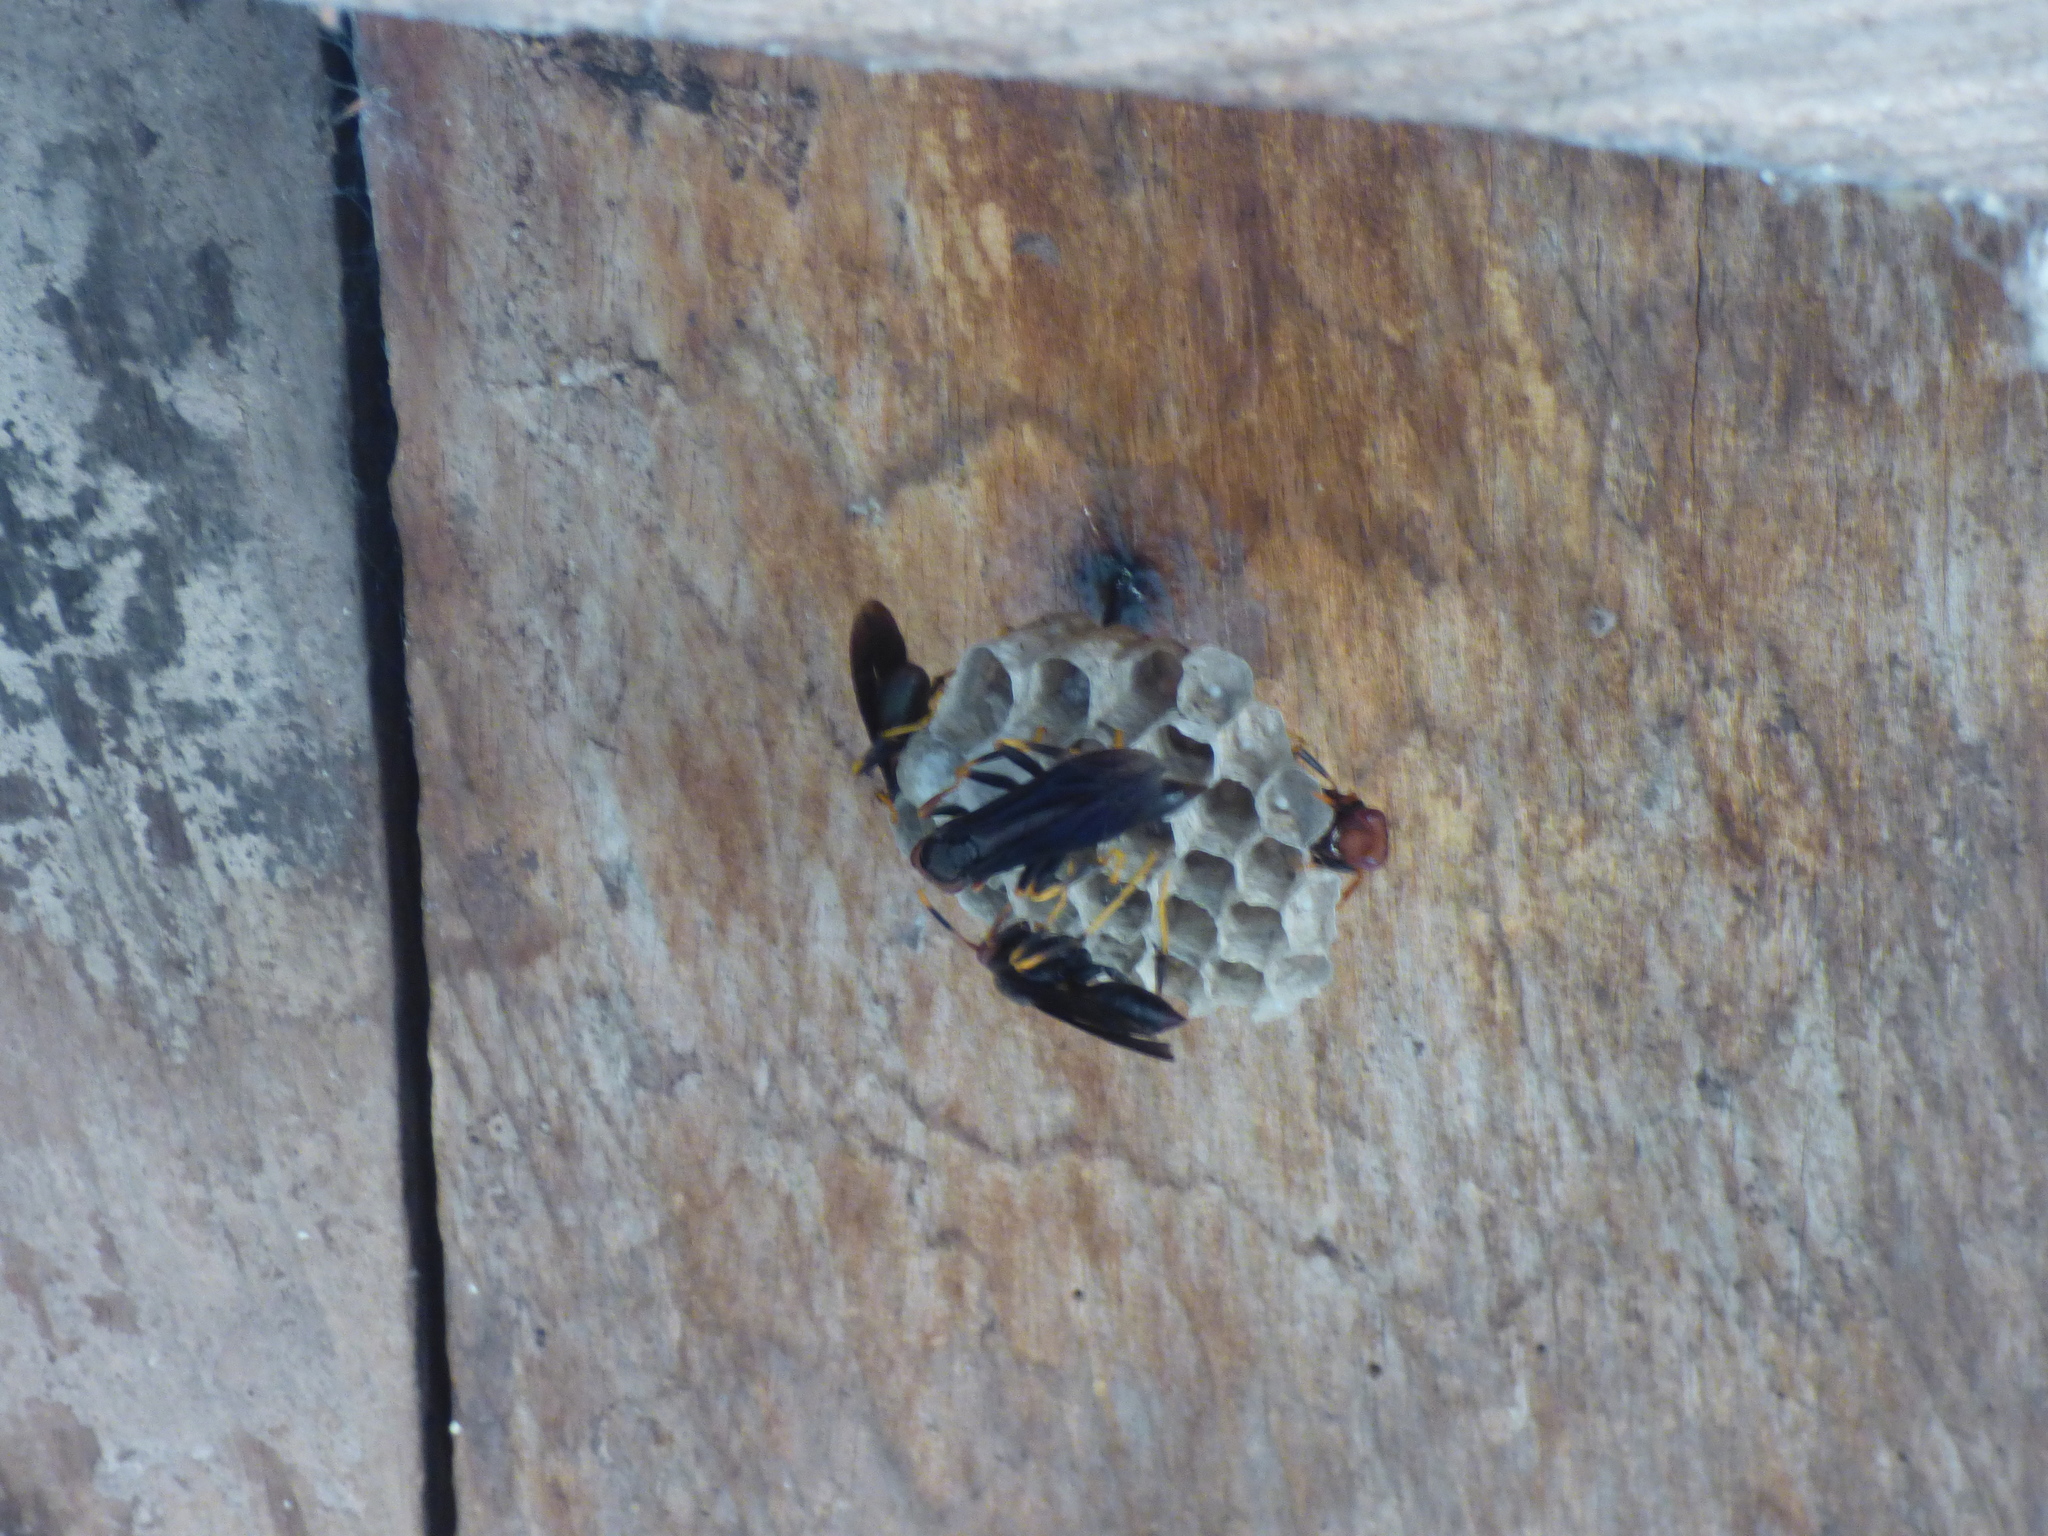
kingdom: Animalia
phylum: Arthropoda
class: Insecta
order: Hymenoptera
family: Eumenidae
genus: Polistes
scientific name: Polistes erythrocephalus
